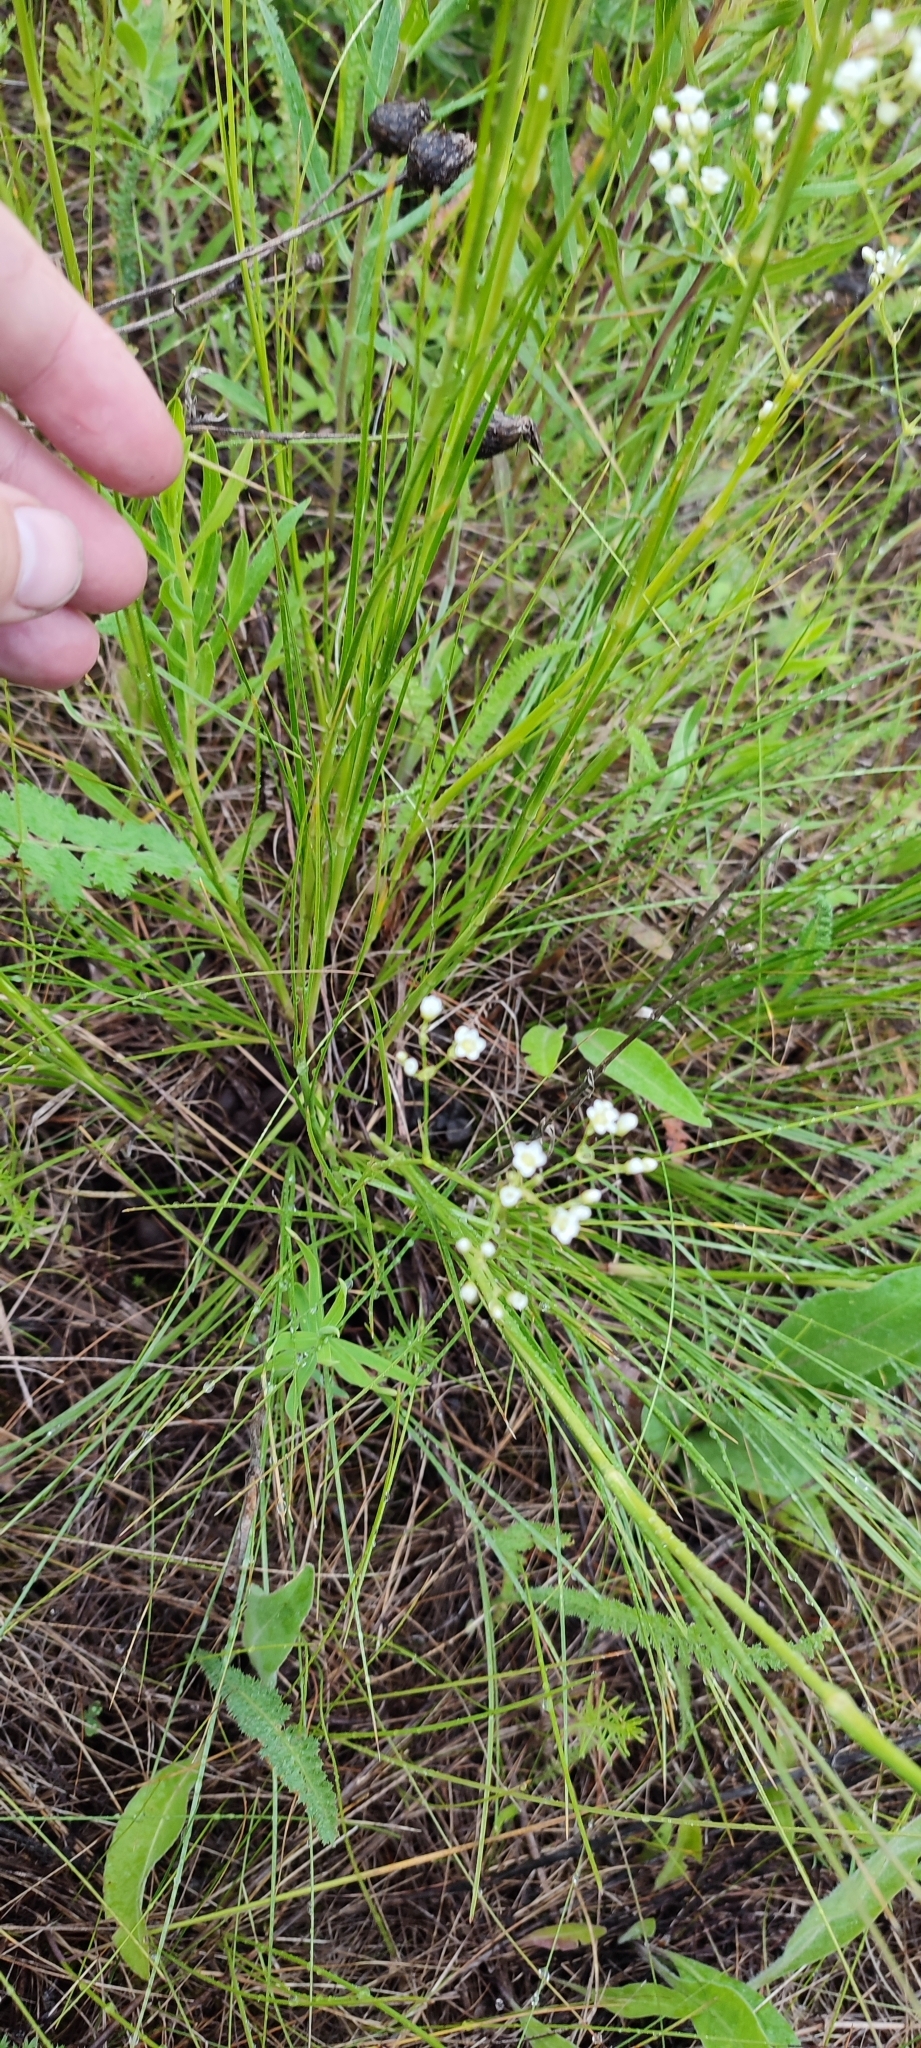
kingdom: Plantae
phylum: Tracheophyta
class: Magnoliopsida
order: Caryophyllales
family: Caryophyllaceae
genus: Eremogone
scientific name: Eremogone longifolia
